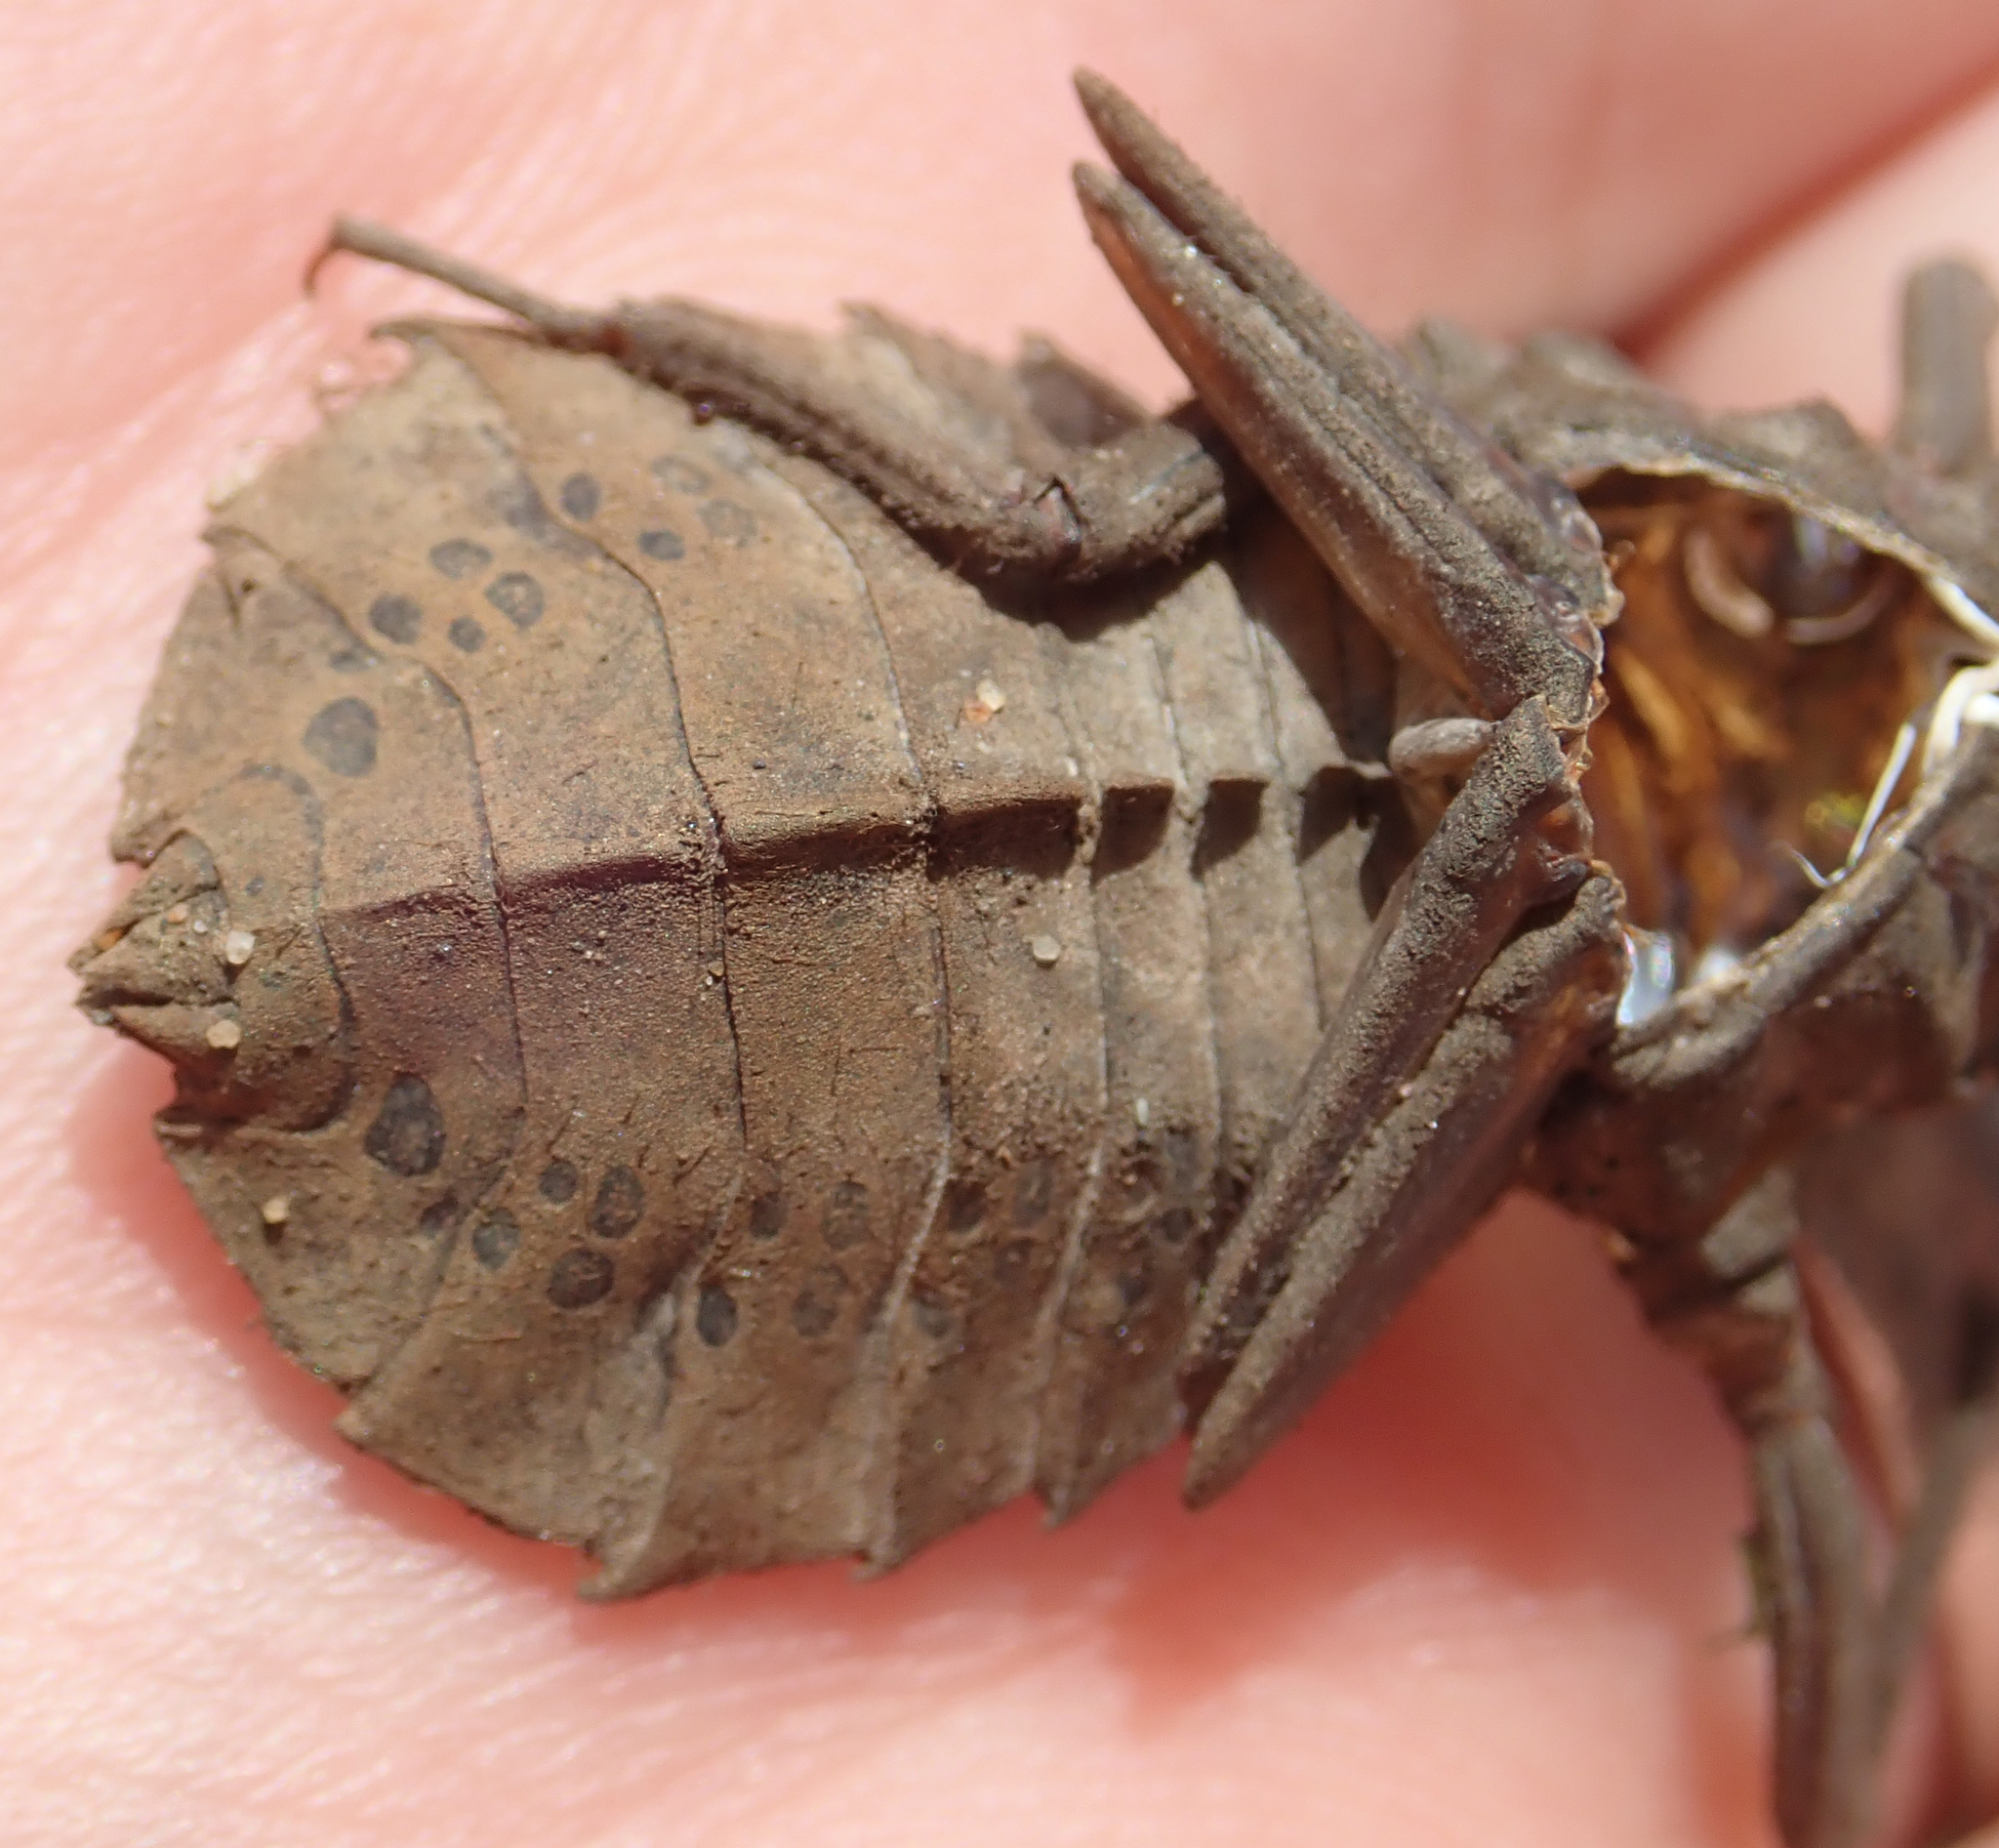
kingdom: Animalia
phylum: Arthropoda
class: Insecta
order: Odonata
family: Gomphidae
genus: Ictinogomphus
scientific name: Ictinogomphus ferox
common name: Common tiger
